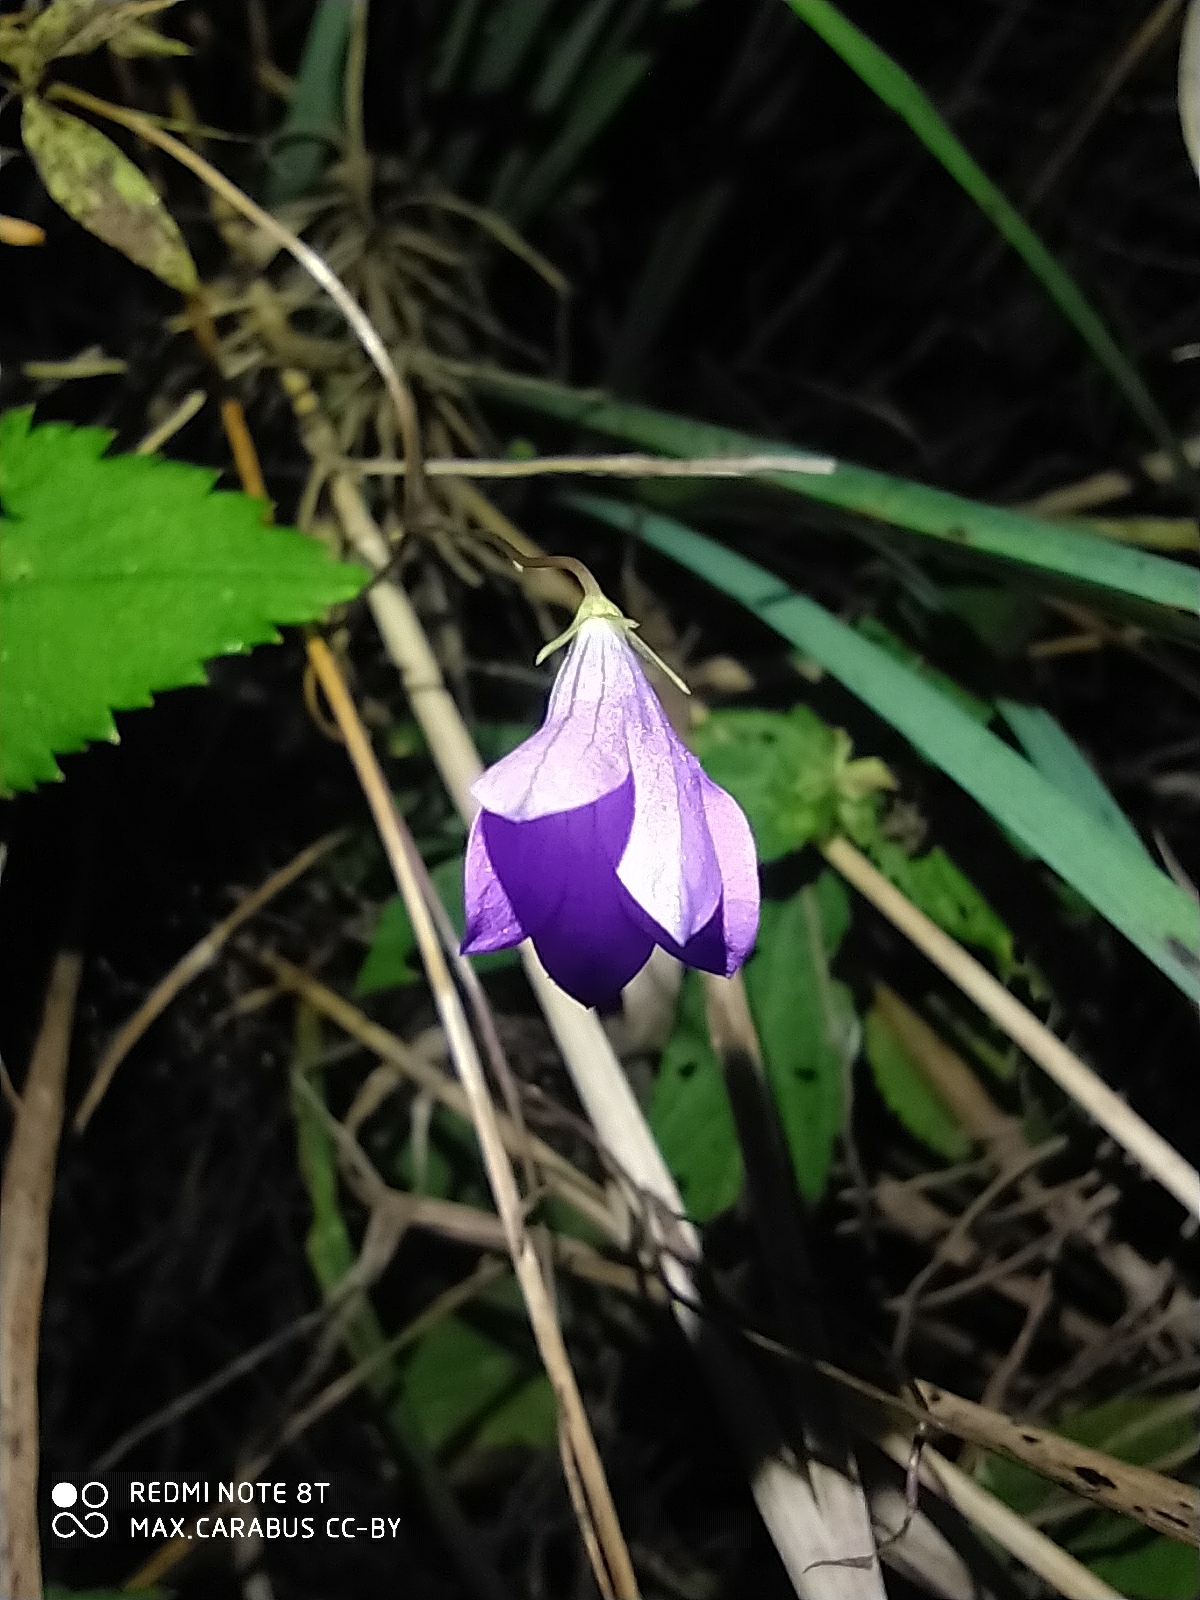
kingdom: Plantae
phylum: Tracheophyta
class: Magnoliopsida
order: Asterales
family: Campanulaceae
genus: Campanula
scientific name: Campanula patula
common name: Spreading bellflower
